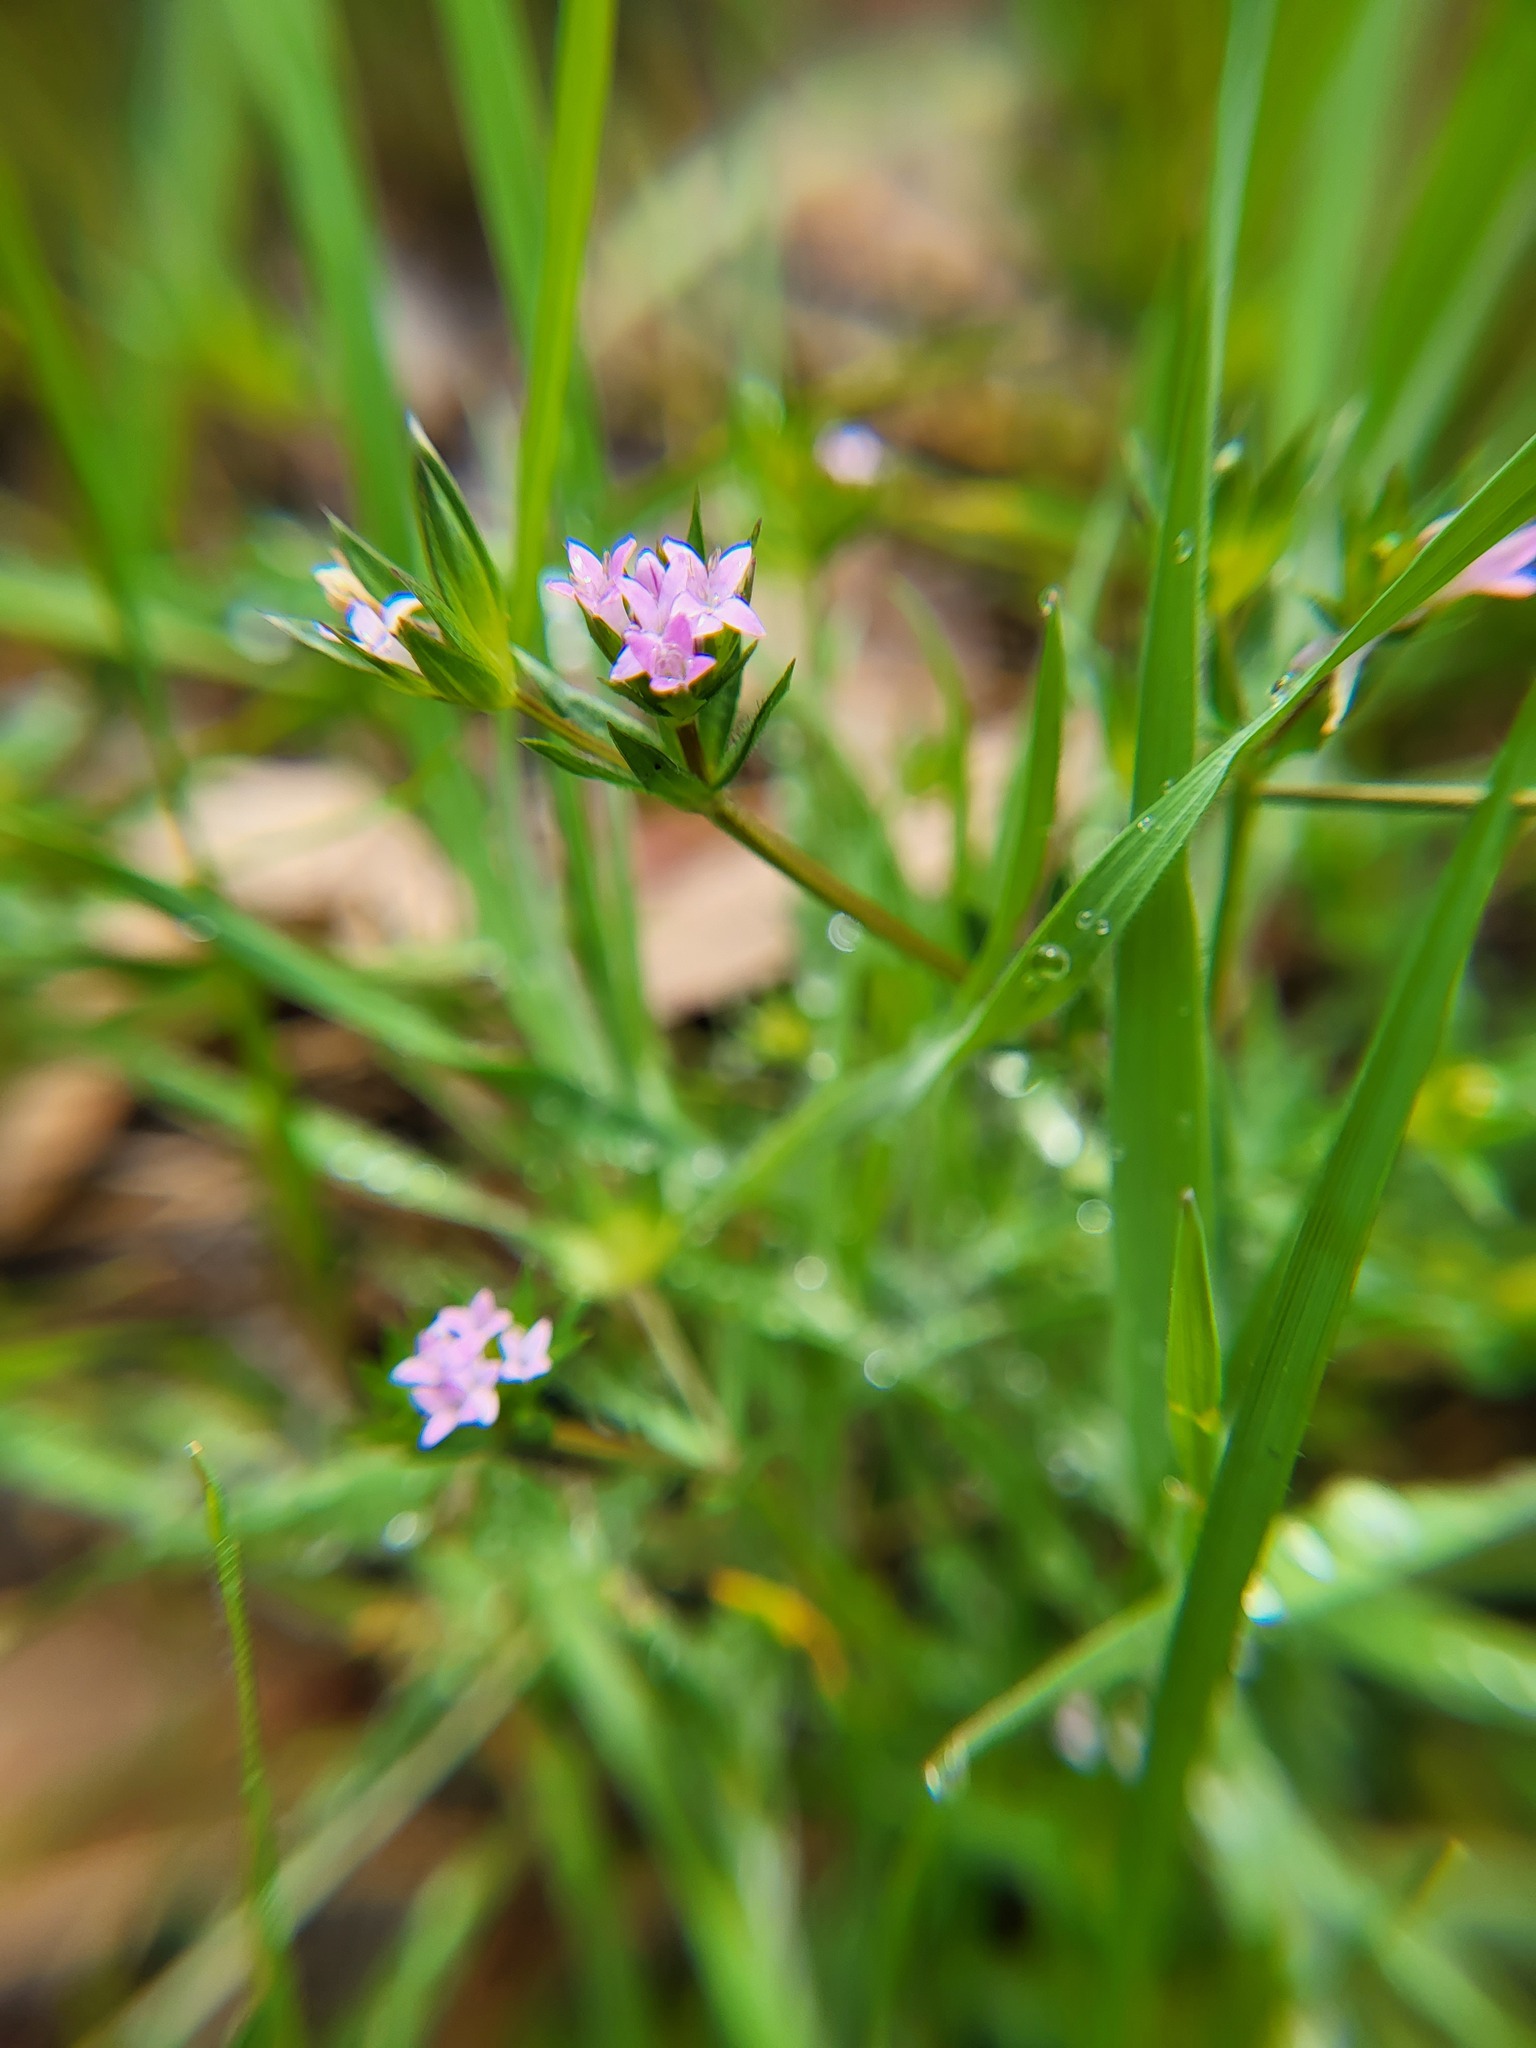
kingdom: Plantae
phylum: Tracheophyta
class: Magnoliopsida
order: Gentianales
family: Rubiaceae
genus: Sherardia
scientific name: Sherardia arvensis
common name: Field madder
